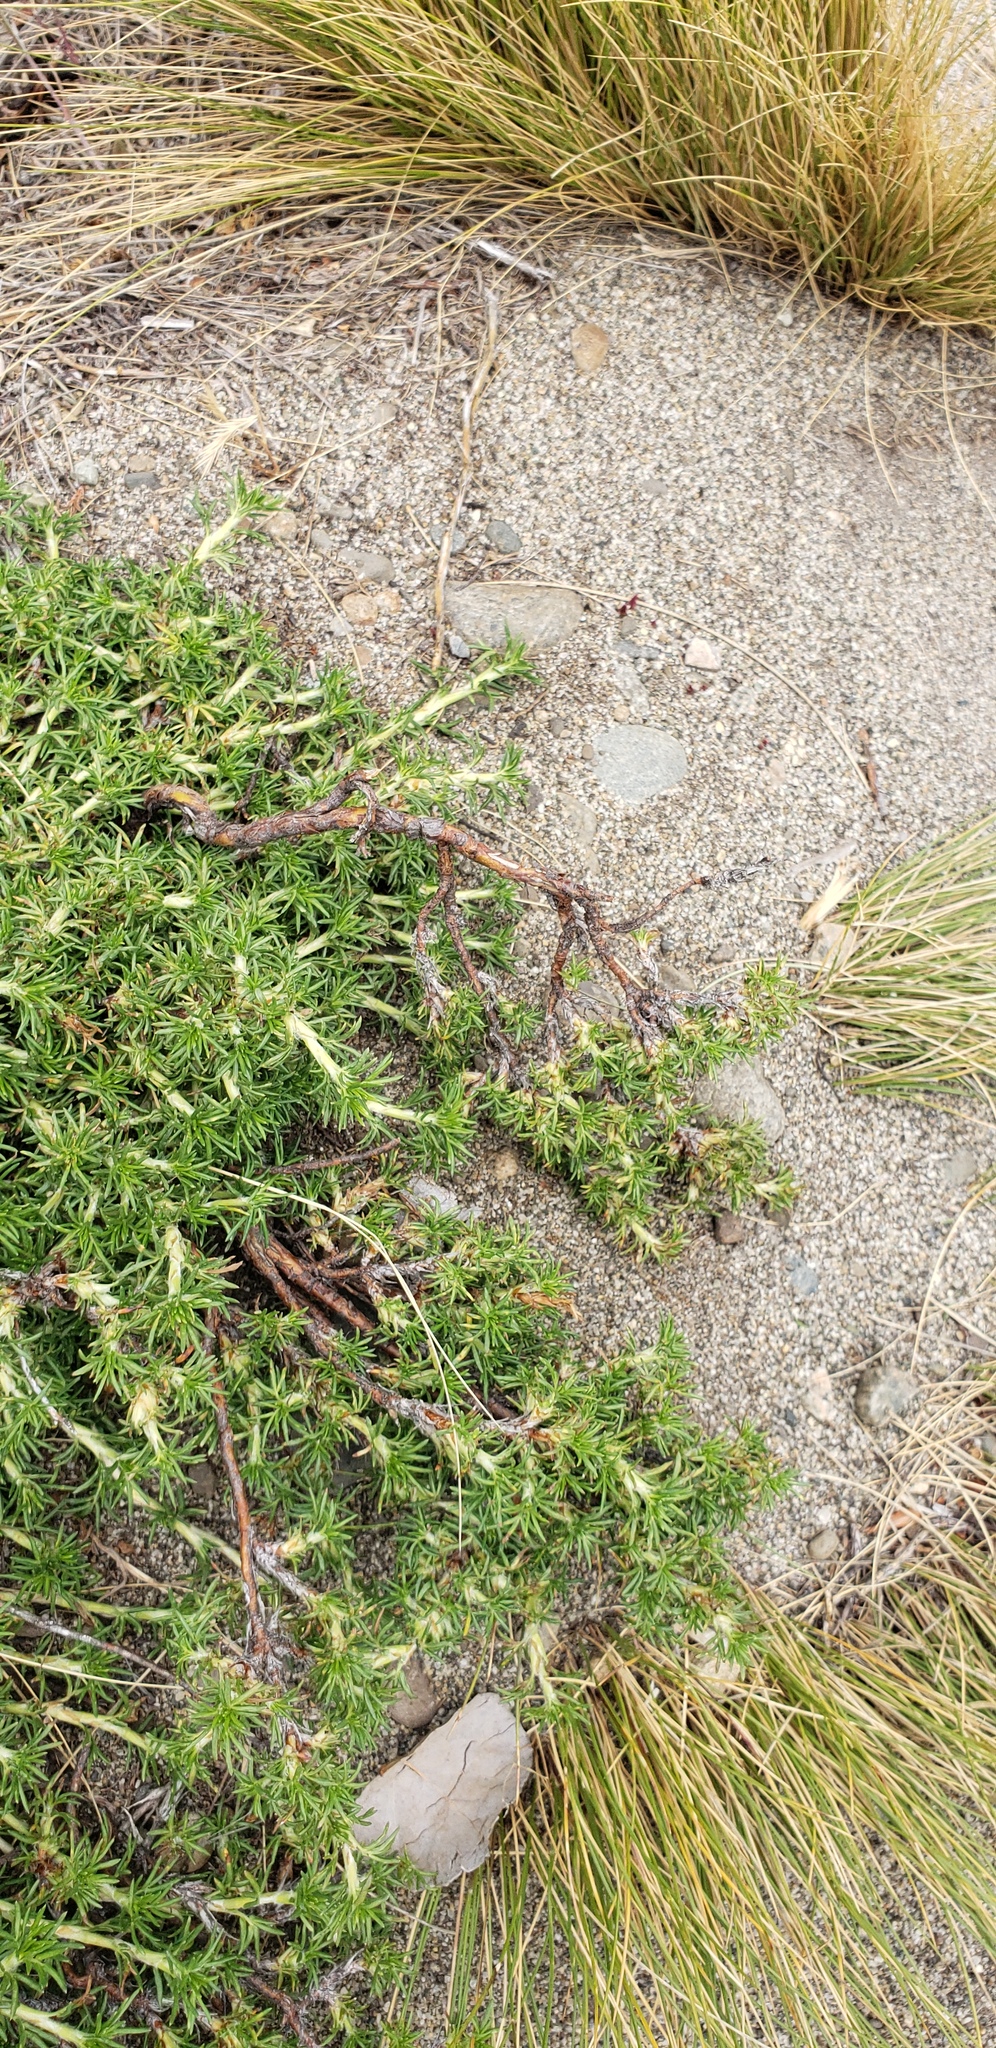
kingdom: Plantae
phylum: Tracheophyta
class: Magnoliopsida
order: Rosales
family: Rosaceae
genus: Margyricarpus
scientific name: Margyricarpus pinnatus
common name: Pearlfruit
